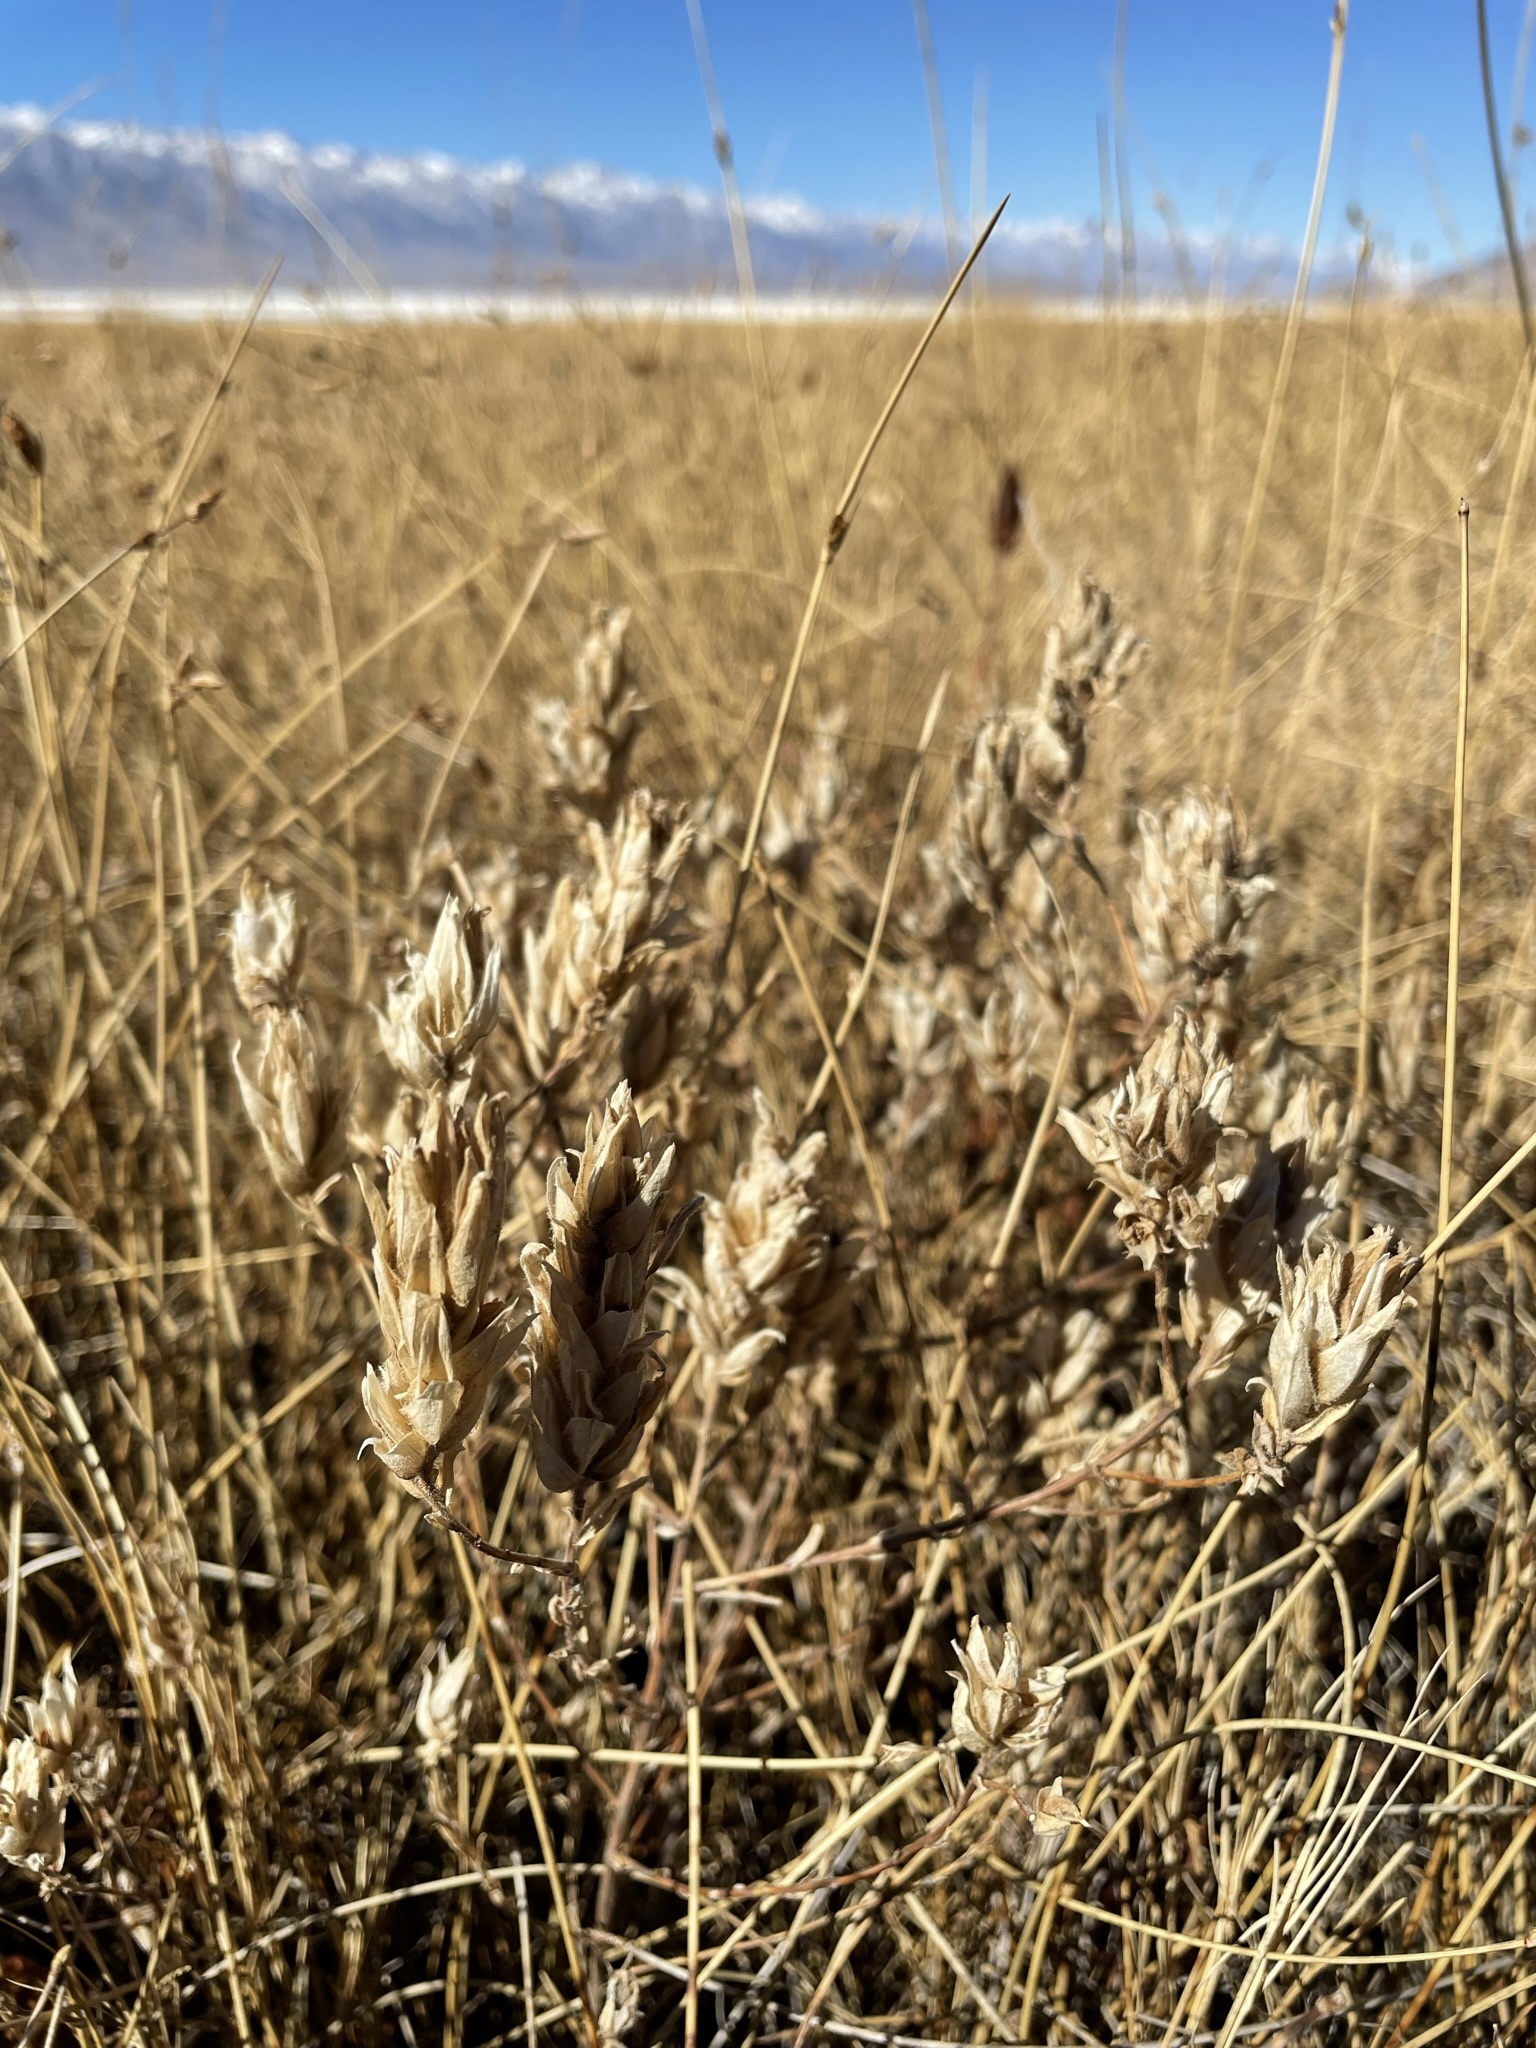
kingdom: Plantae
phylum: Tracheophyta
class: Magnoliopsida
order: Lamiales
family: Orobanchaceae
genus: Chloropyron
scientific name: Chloropyron maritimum
